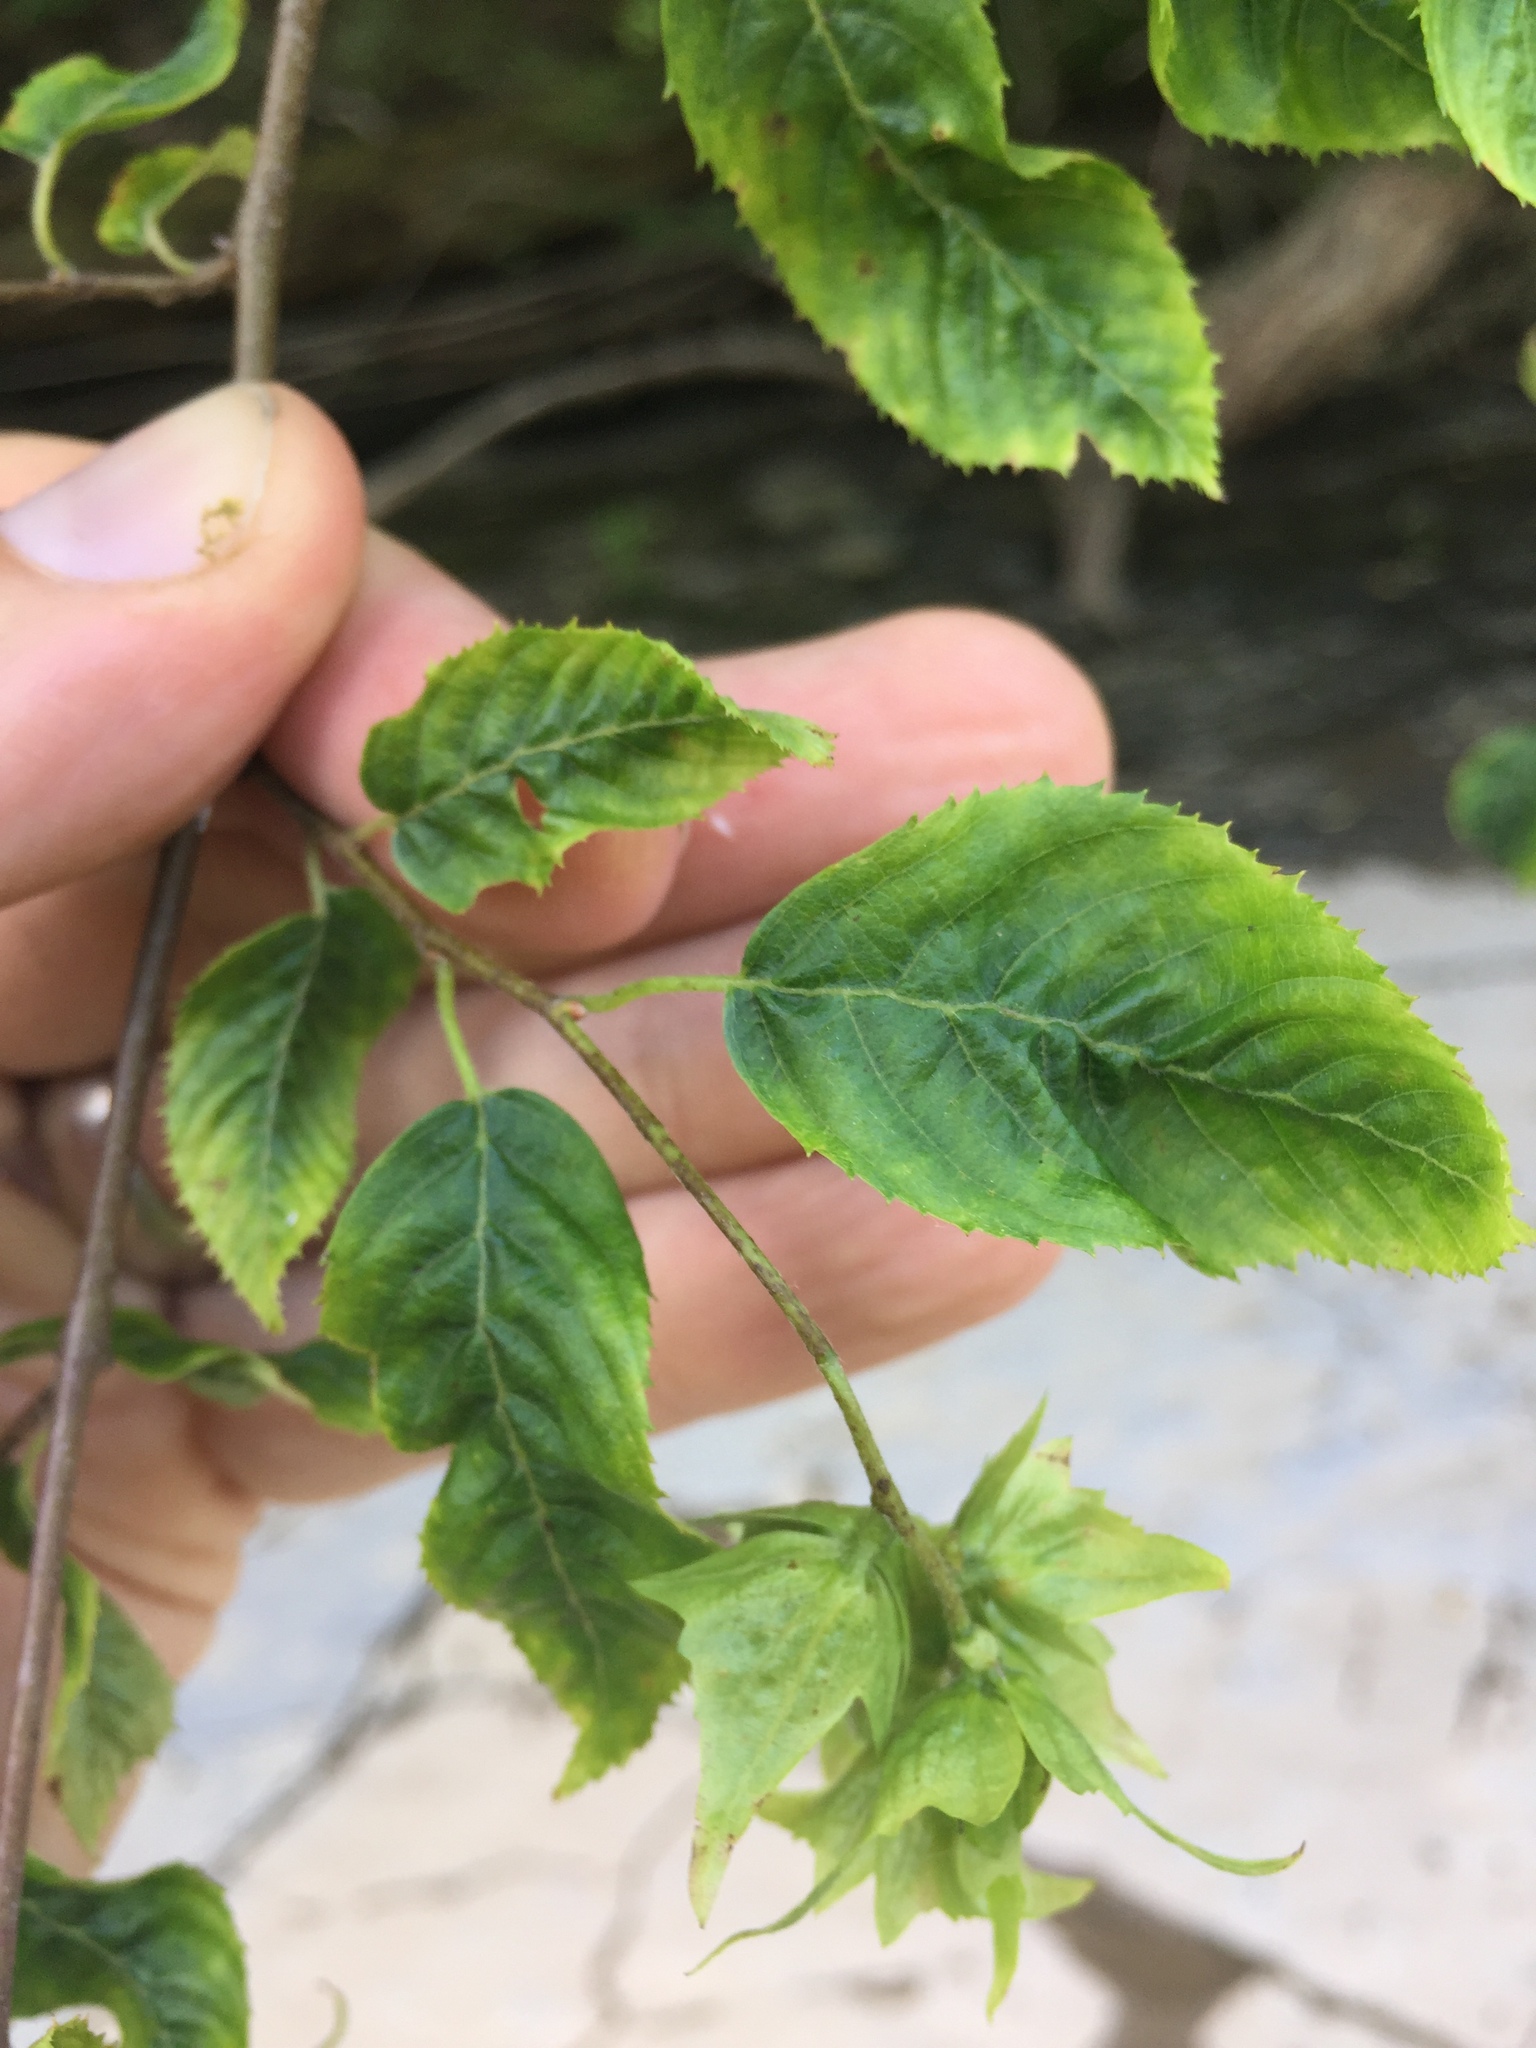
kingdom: Plantae
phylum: Tracheophyta
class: Magnoliopsida
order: Fagales
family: Betulaceae
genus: Carpinus
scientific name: Carpinus caroliniana
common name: American hornbeam
